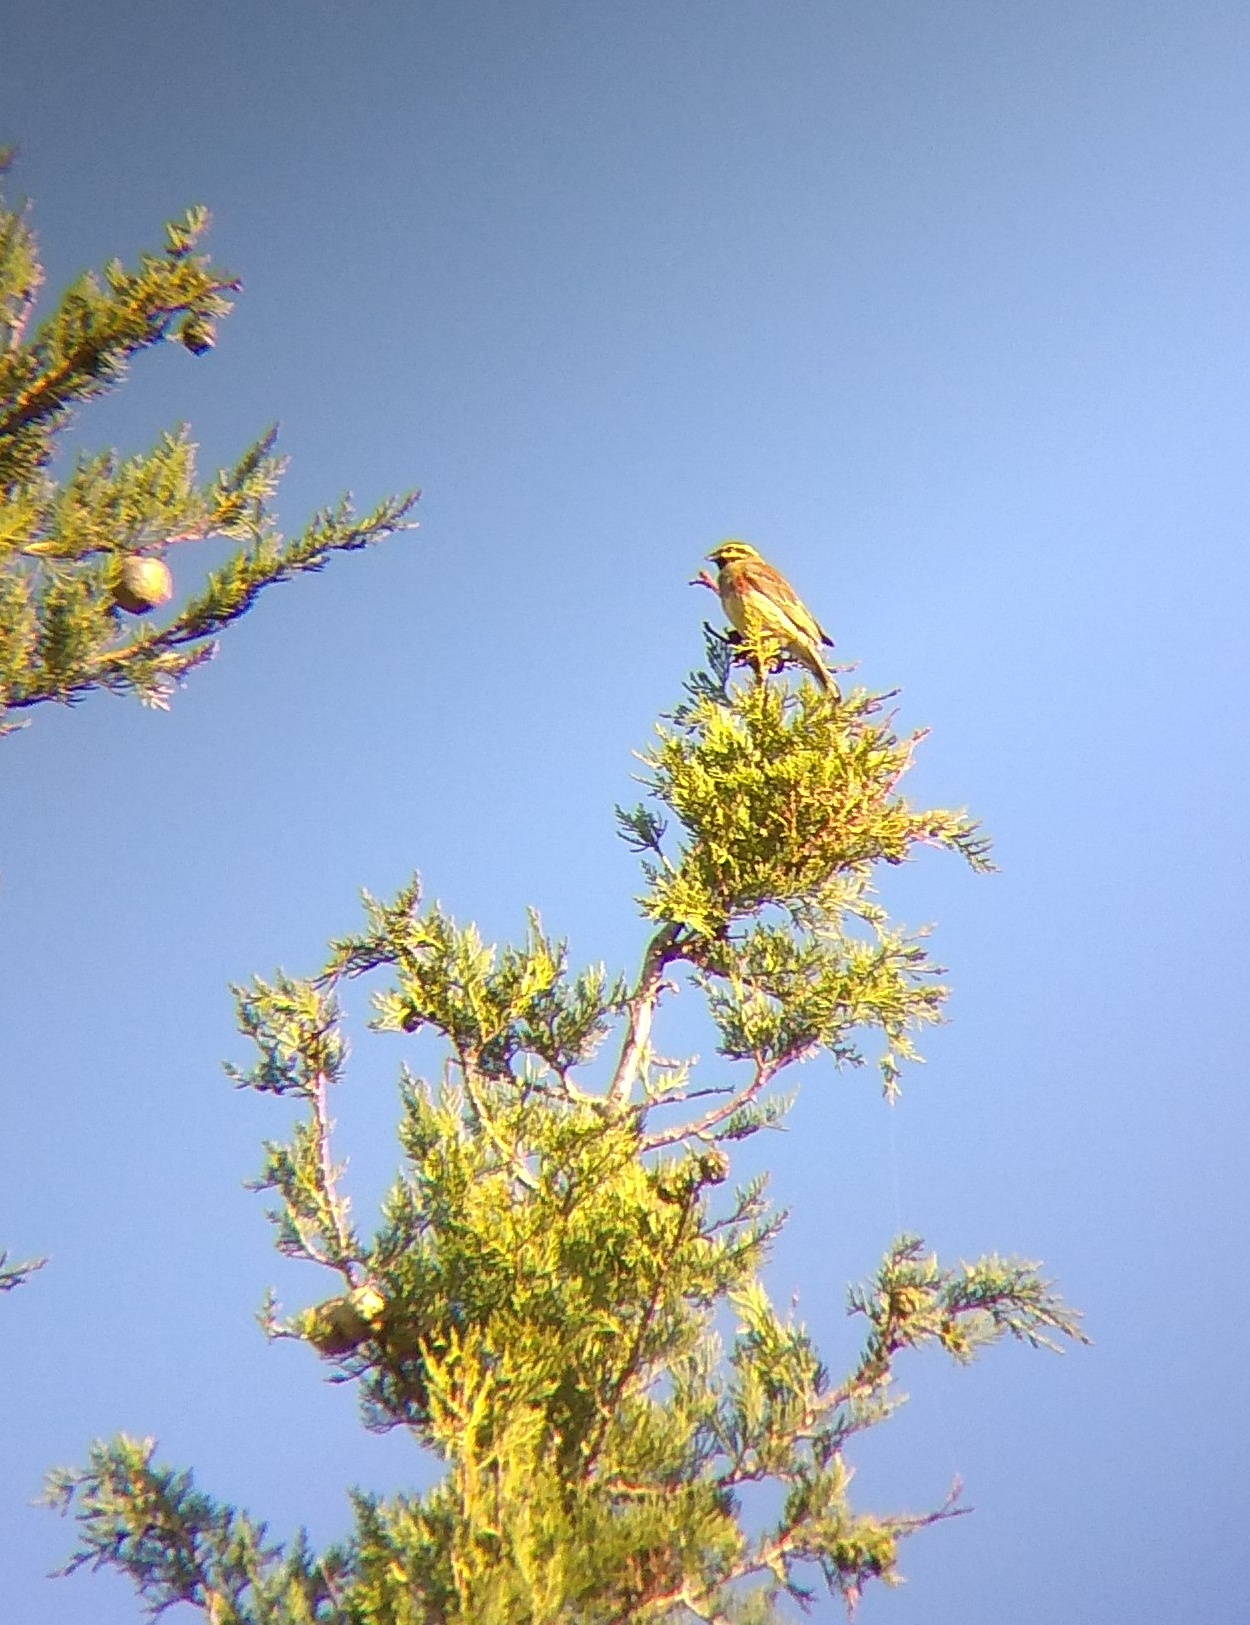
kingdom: Animalia
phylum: Chordata
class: Aves
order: Passeriformes
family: Emberizidae
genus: Emberiza
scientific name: Emberiza cirlus
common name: Cirl bunting
